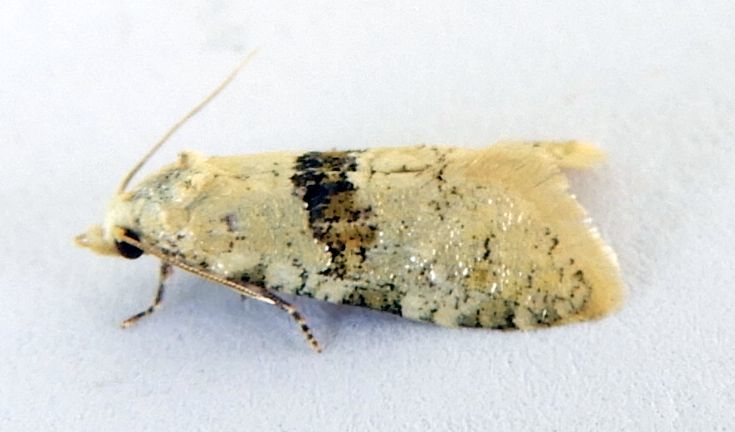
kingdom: Animalia
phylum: Arthropoda
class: Insecta
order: Lepidoptera
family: Tortricidae
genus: Saphenista
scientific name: Saphenista bartellae
